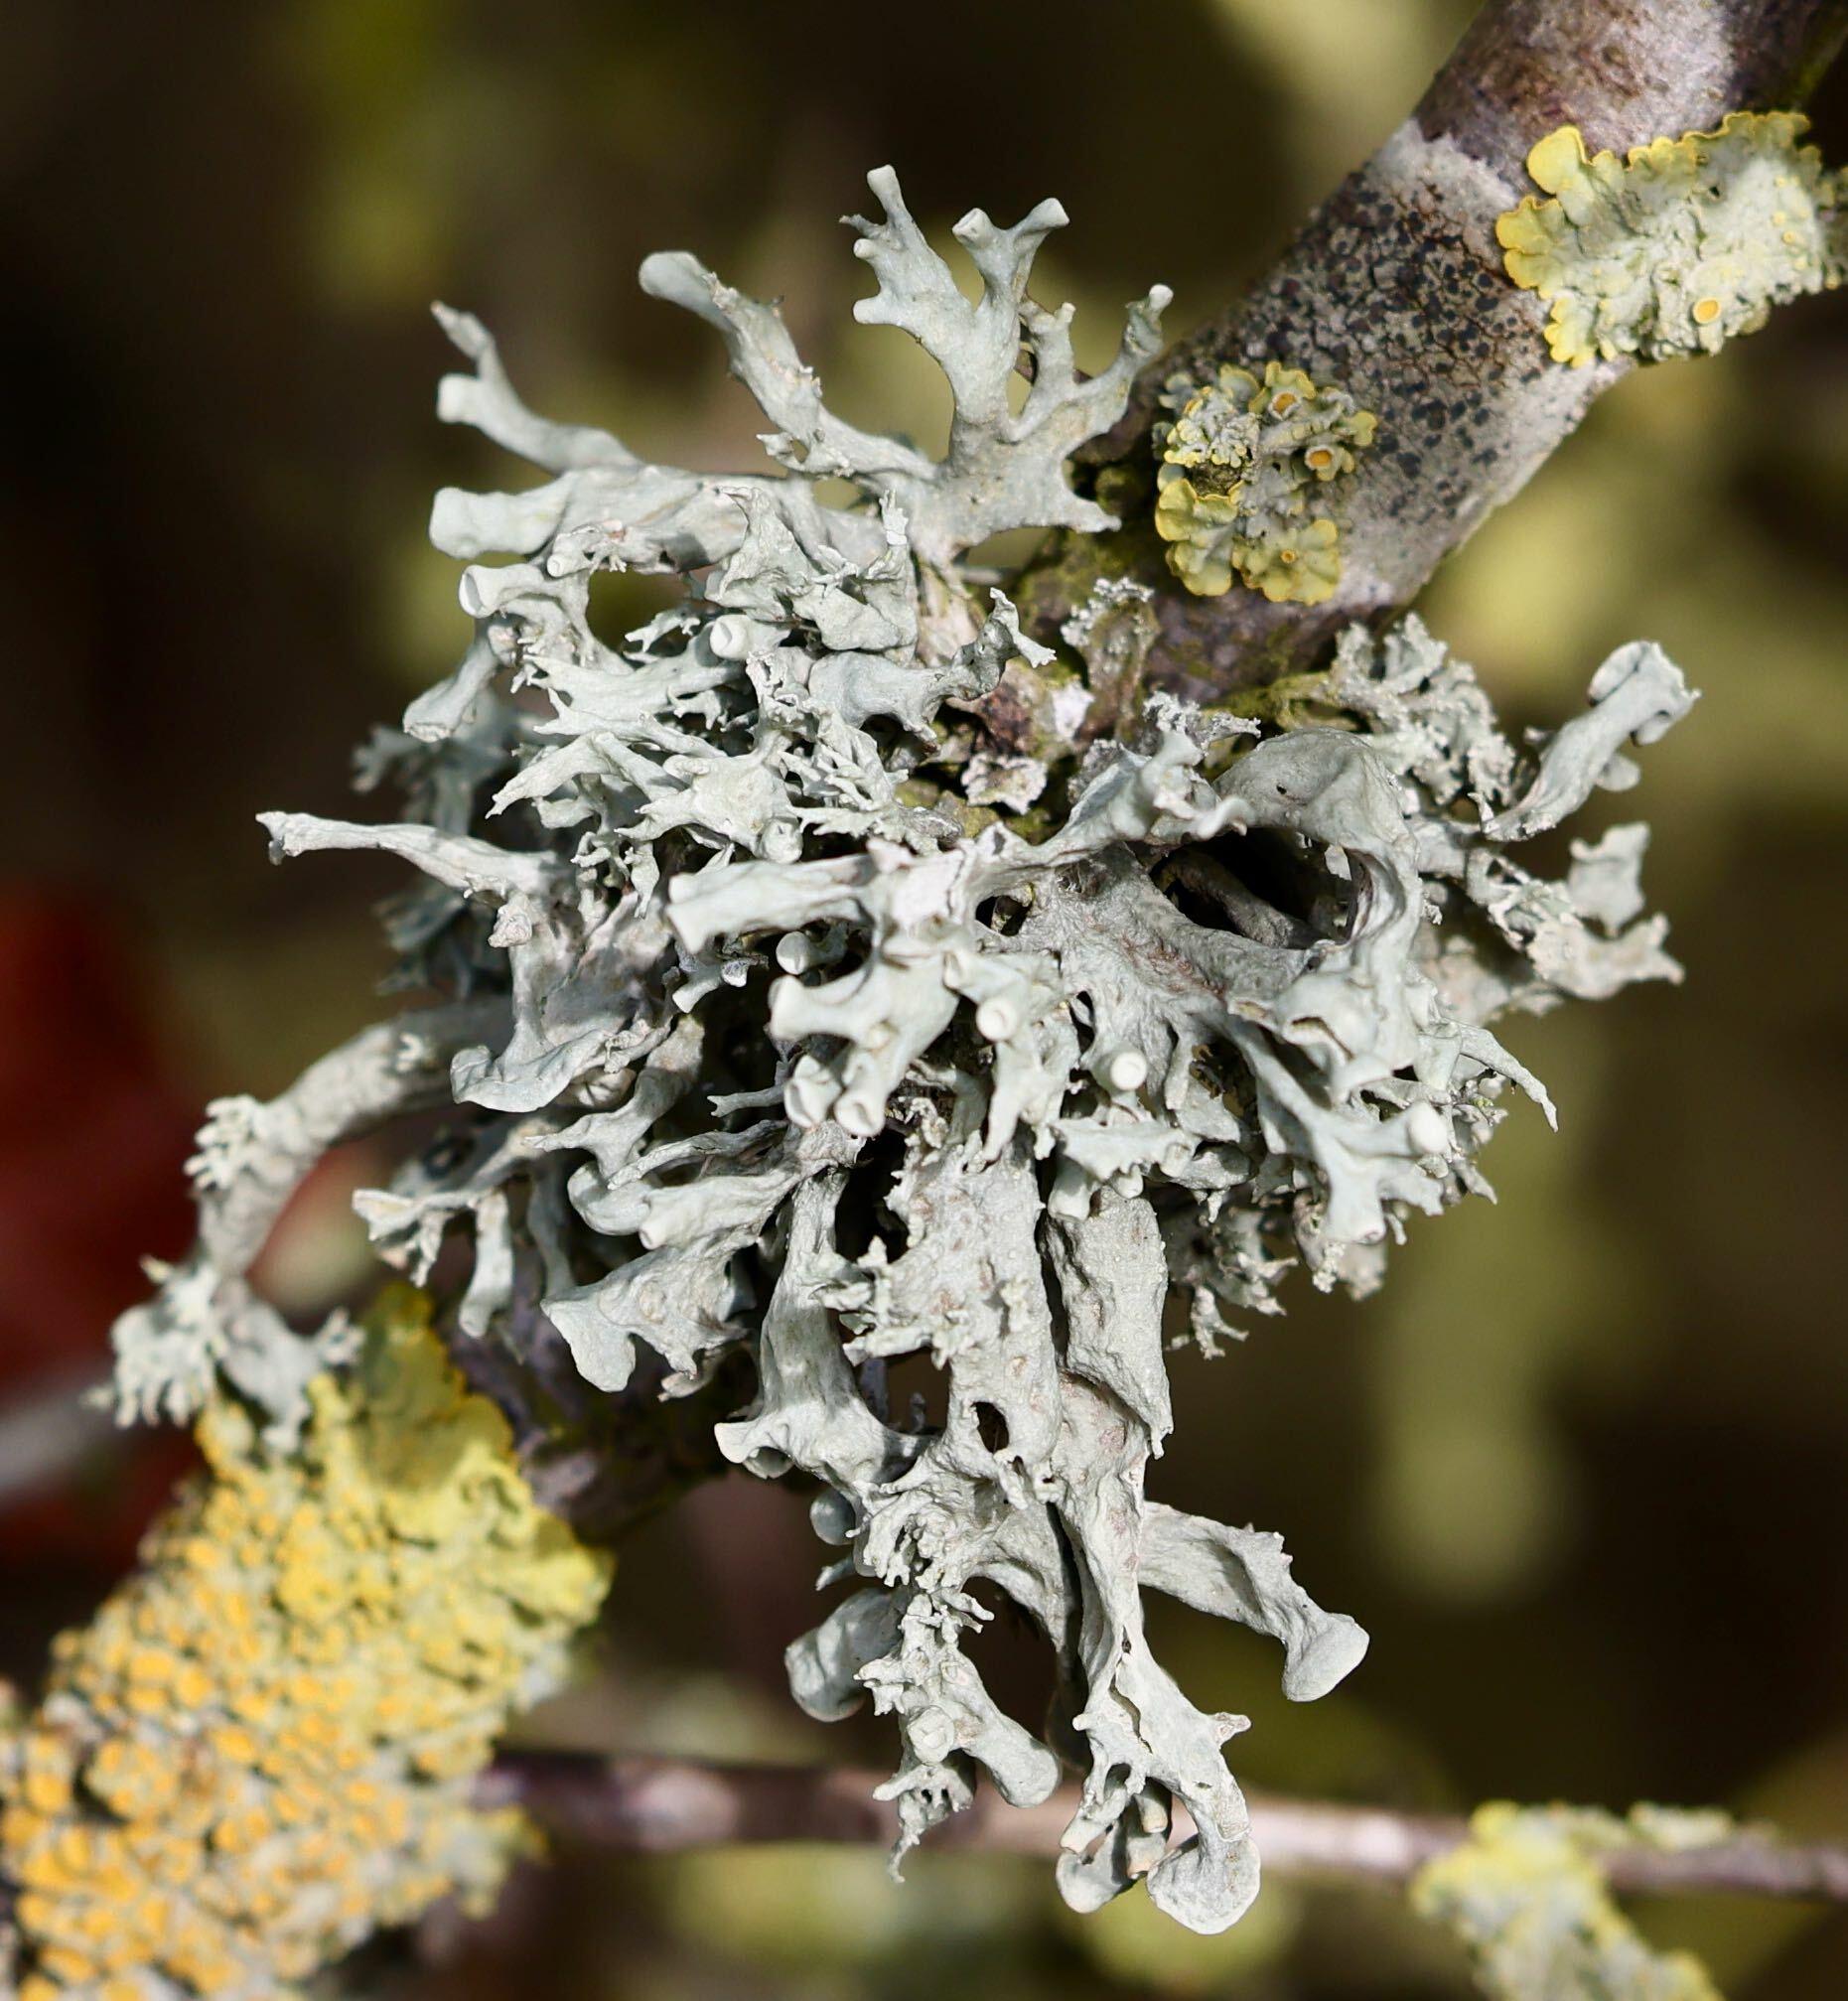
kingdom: Fungi
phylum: Ascomycota
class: Lecanoromycetes
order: Lecanorales
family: Ramalinaceae
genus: Ramalina
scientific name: Ramalina fastigiata
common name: Dotted ribbon lichen
